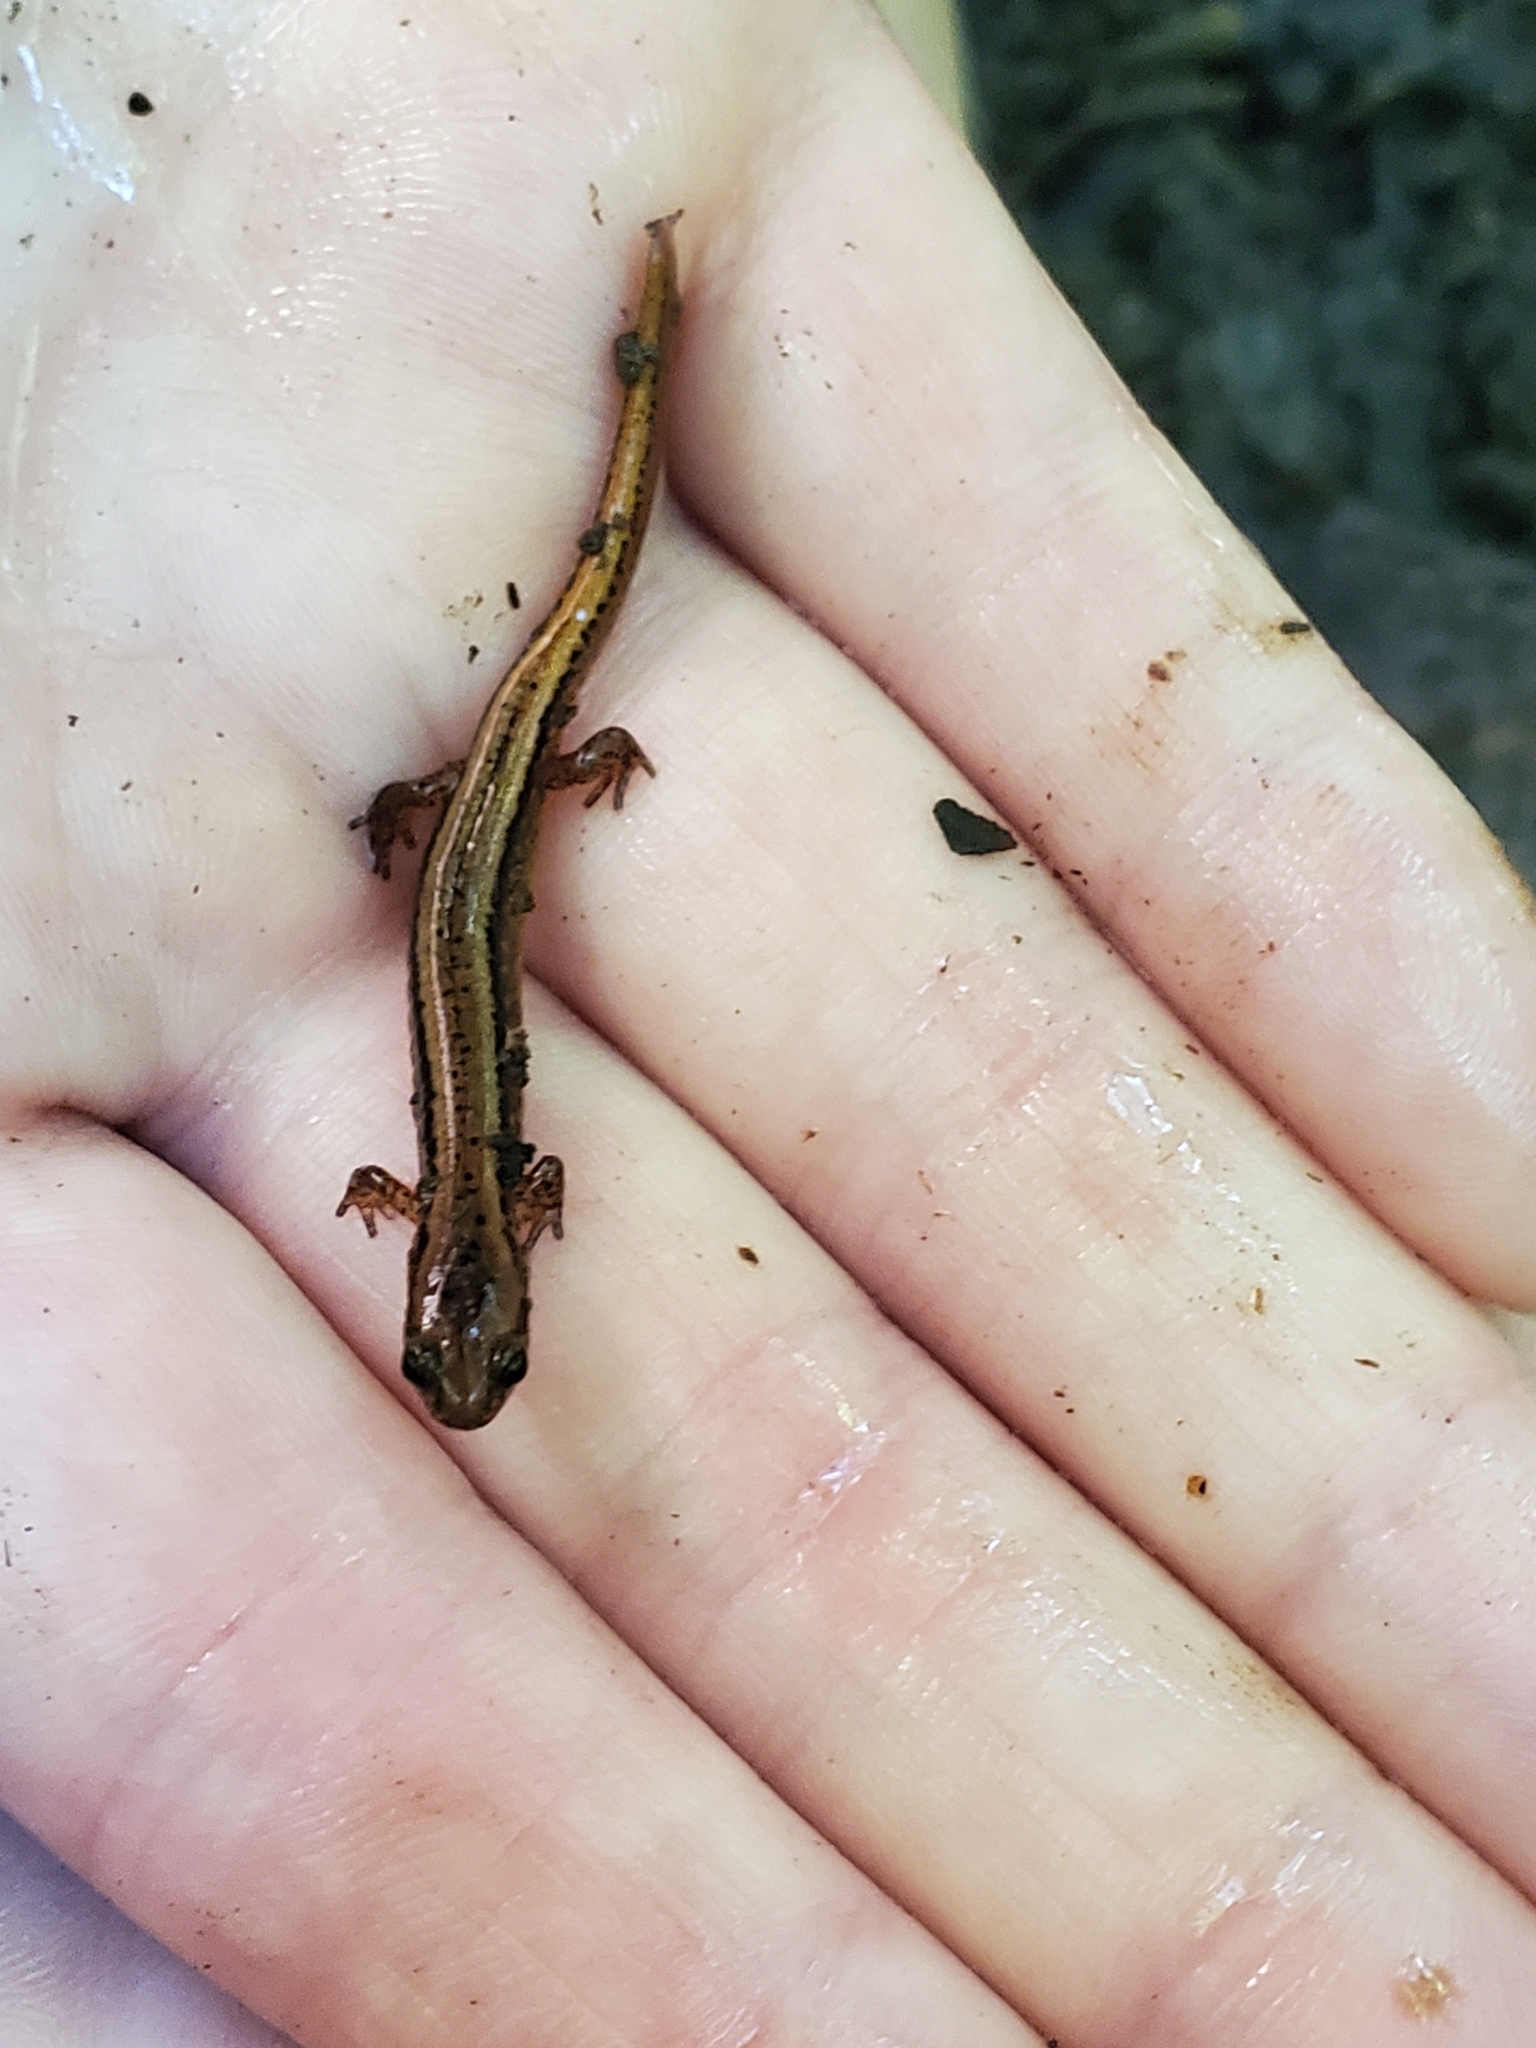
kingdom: Animalia
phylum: Chordata
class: Amphibia
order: Caudata
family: Plethodontidae
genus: Eurycea
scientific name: Eurycea bislineata
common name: Northern two-lined salamander
